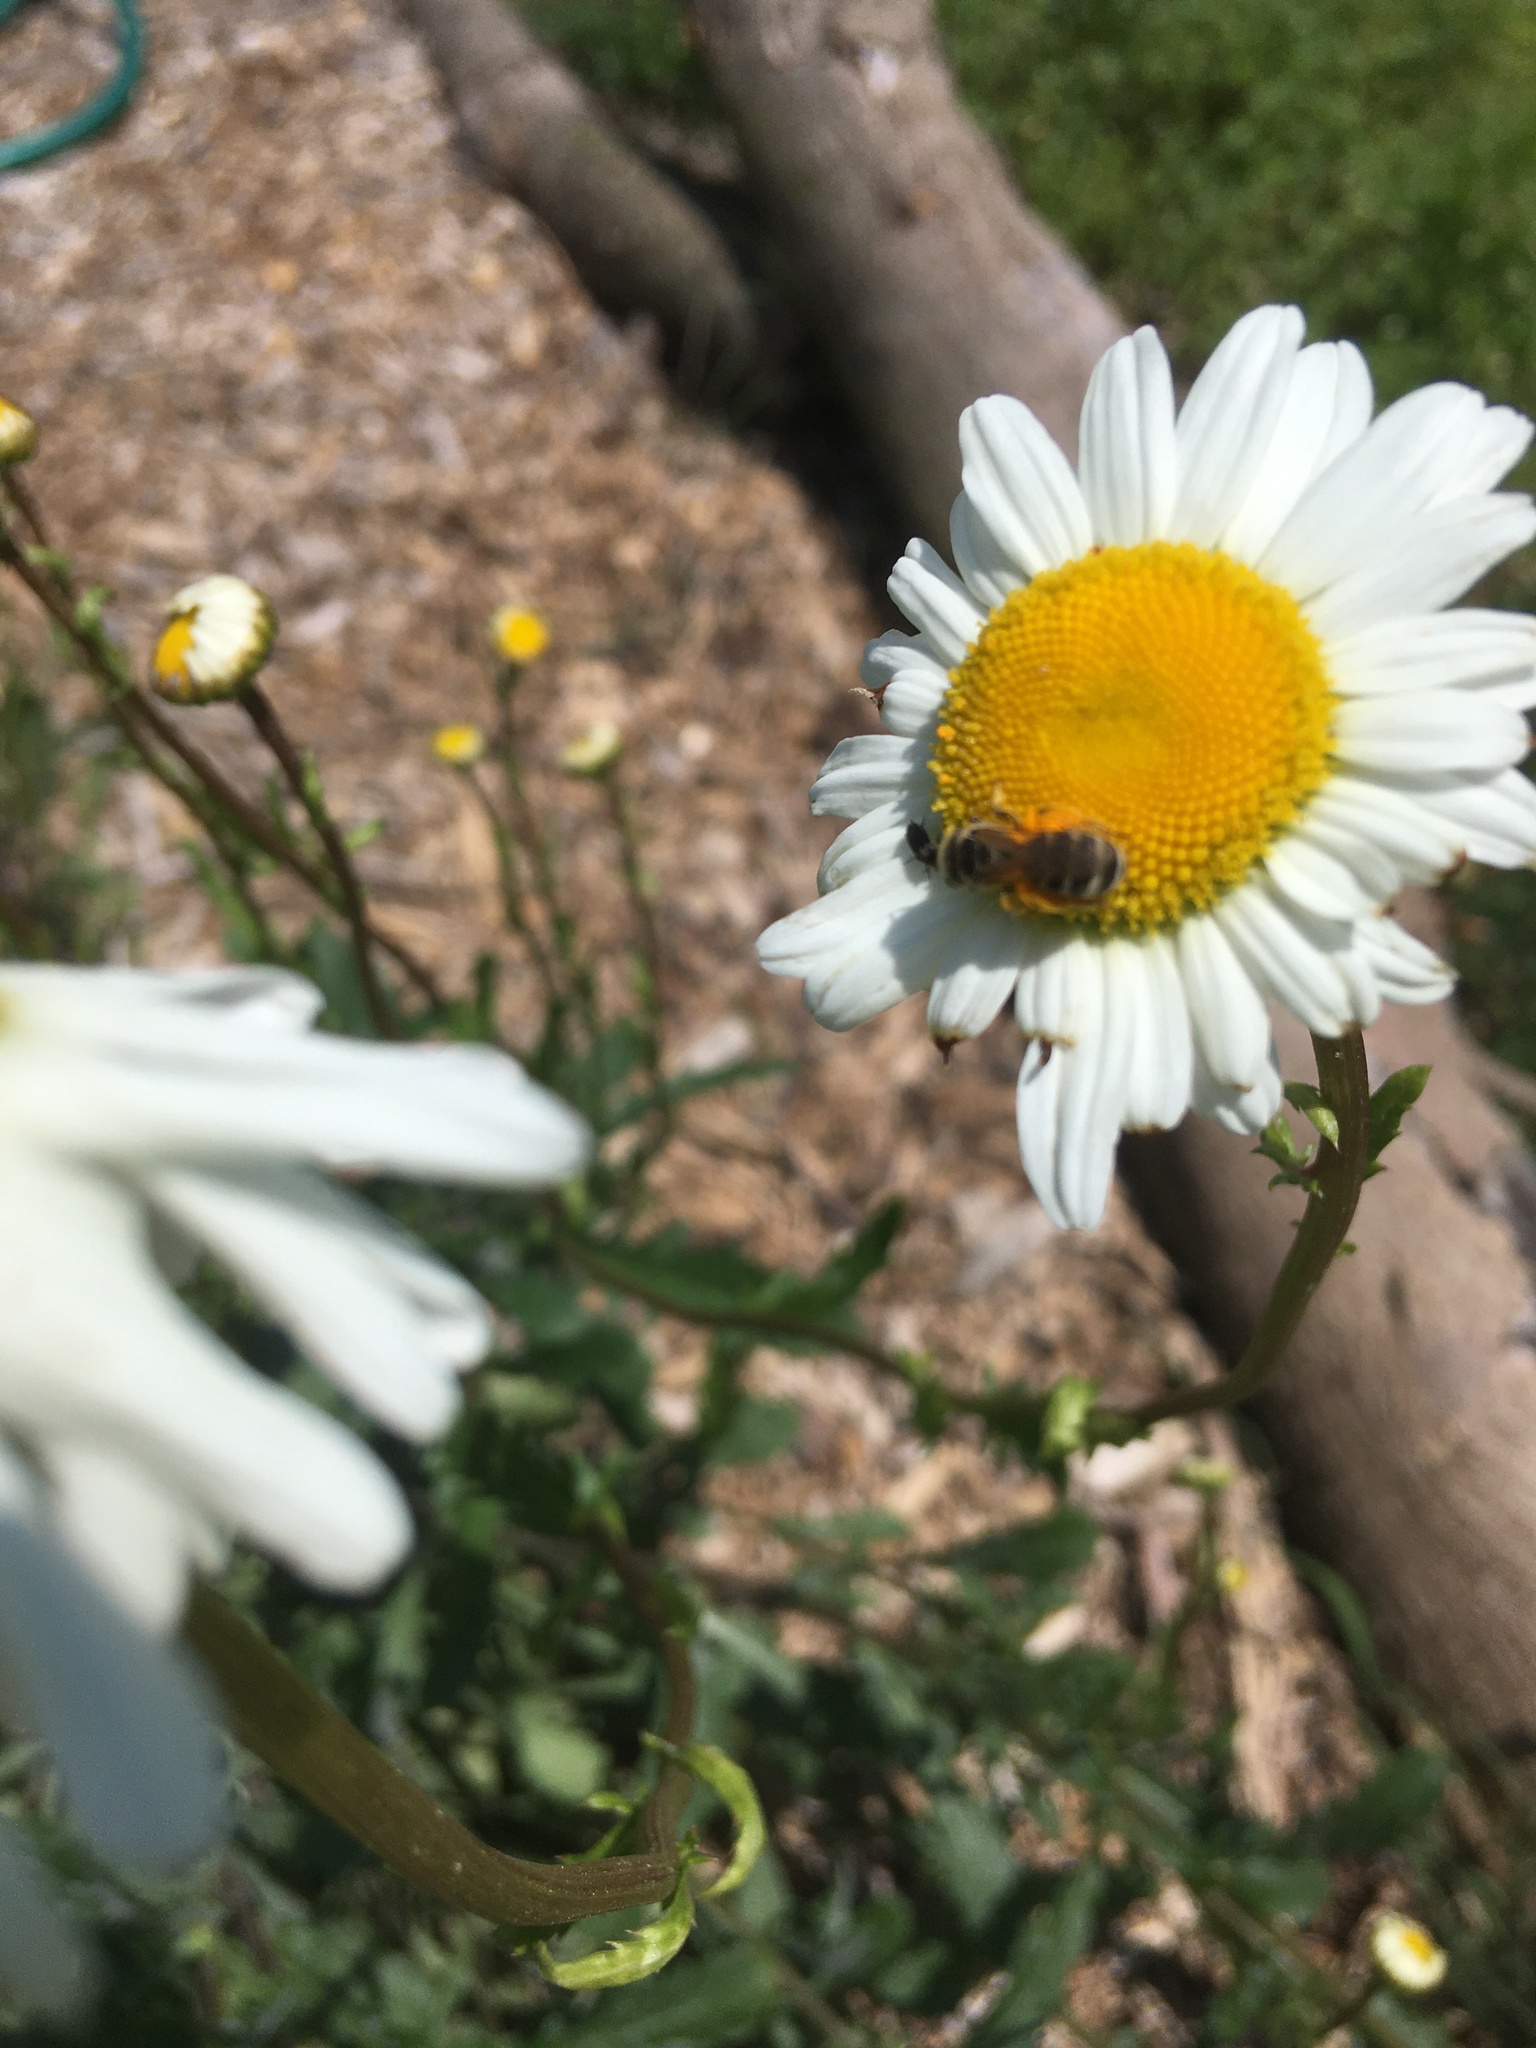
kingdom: Animalia
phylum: Arthropoda
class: Insecta
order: Hymenoptera
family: Halictidae
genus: Halictus
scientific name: Halictus ligatus
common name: Ligated furrow bee
